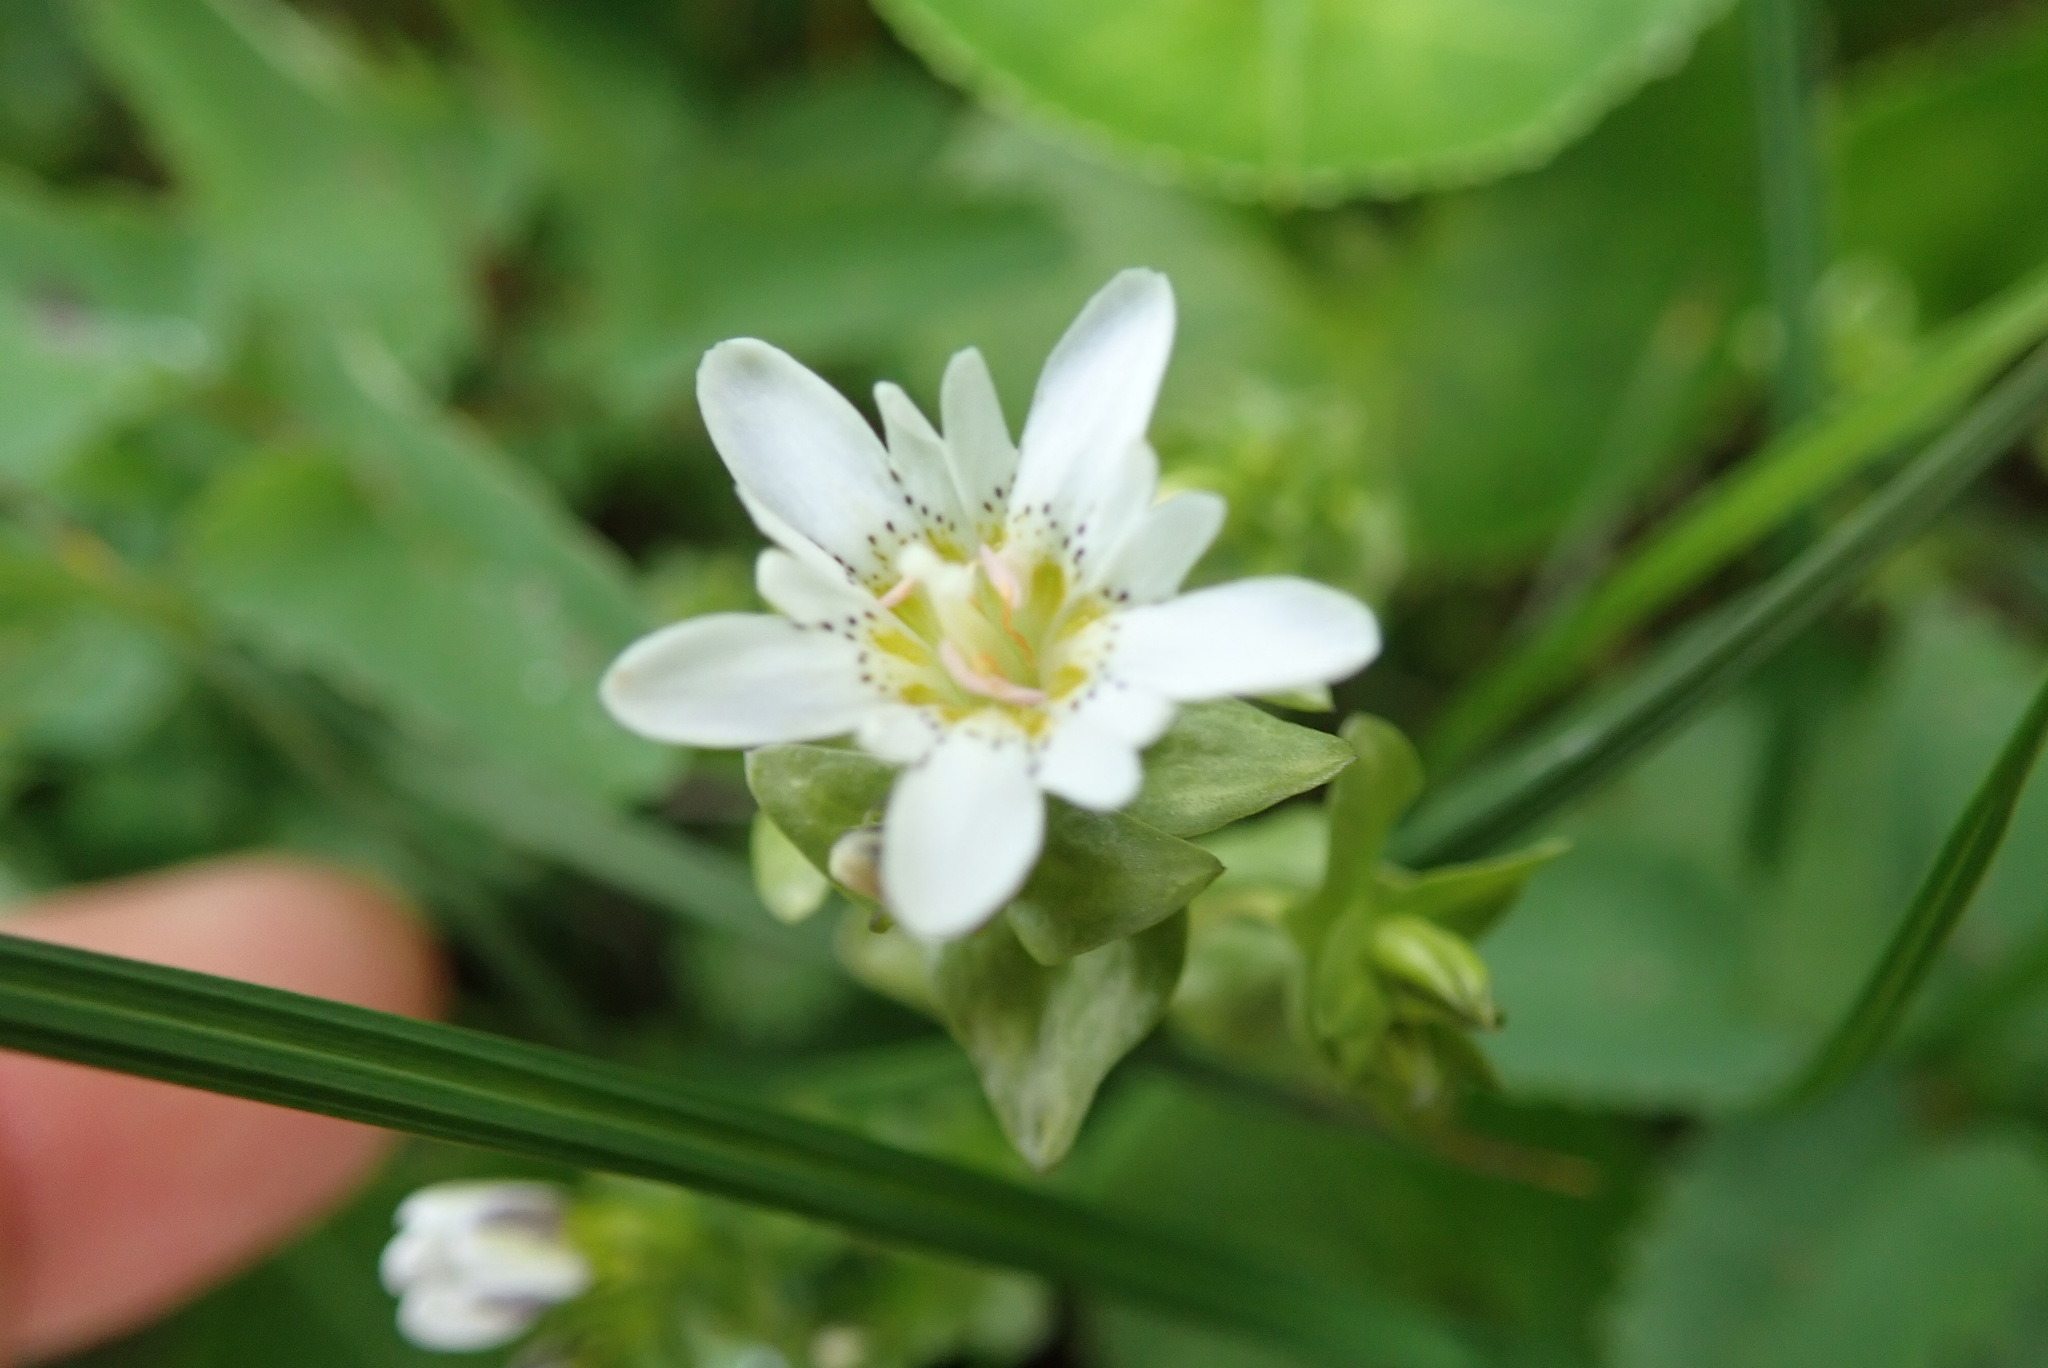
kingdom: Plantae
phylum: Tracheophyta
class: Magnoliopsida
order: Gentianales
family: Gentianaceae
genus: Gentiana
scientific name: Gentiana douglasiana
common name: Swamp gentian
